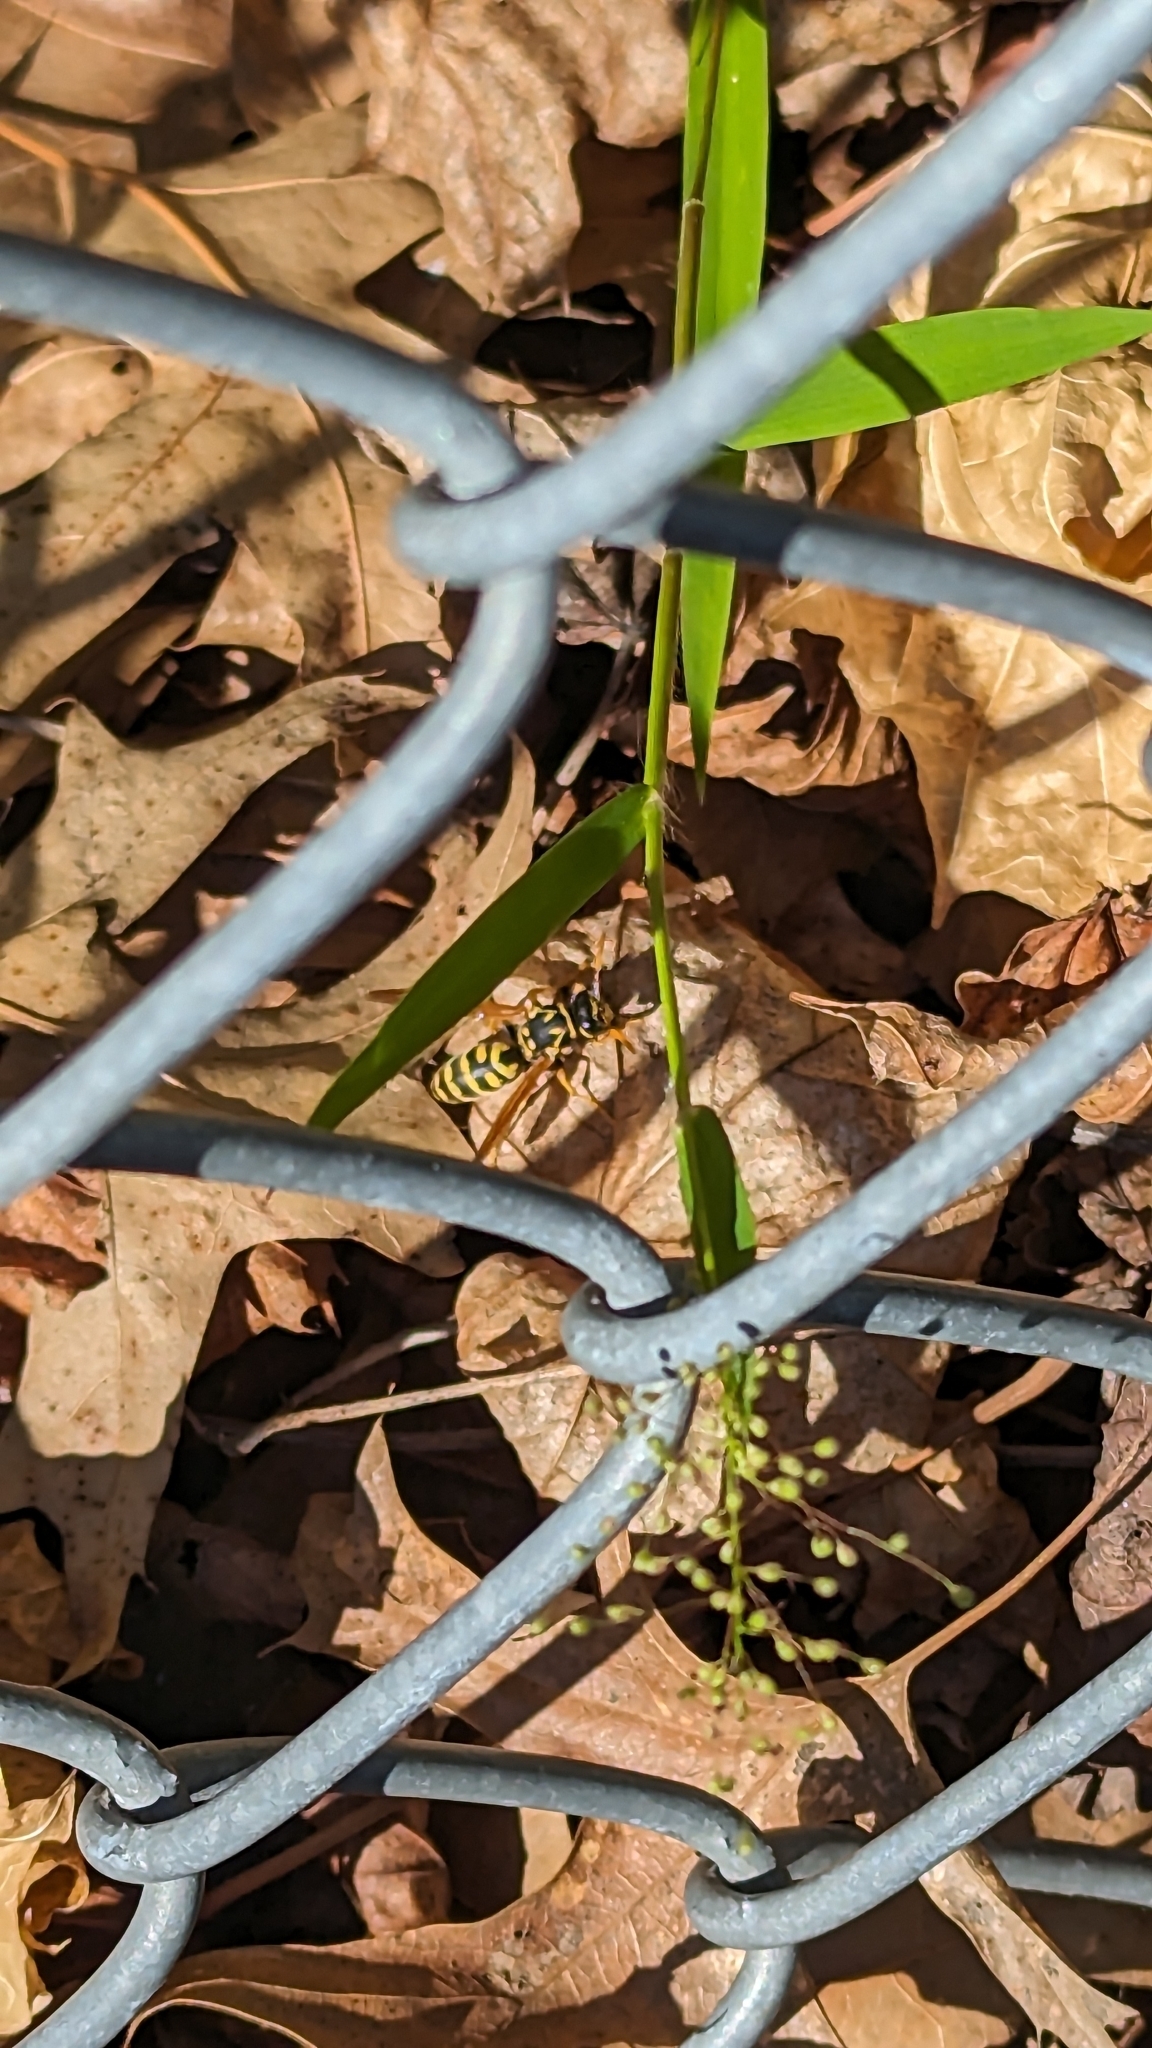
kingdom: Animalia
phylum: Arthropoda
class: Insecta
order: Hymenoptera
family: Eumenidae
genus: Polistes
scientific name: Polistes dominula
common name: Paper wasp
